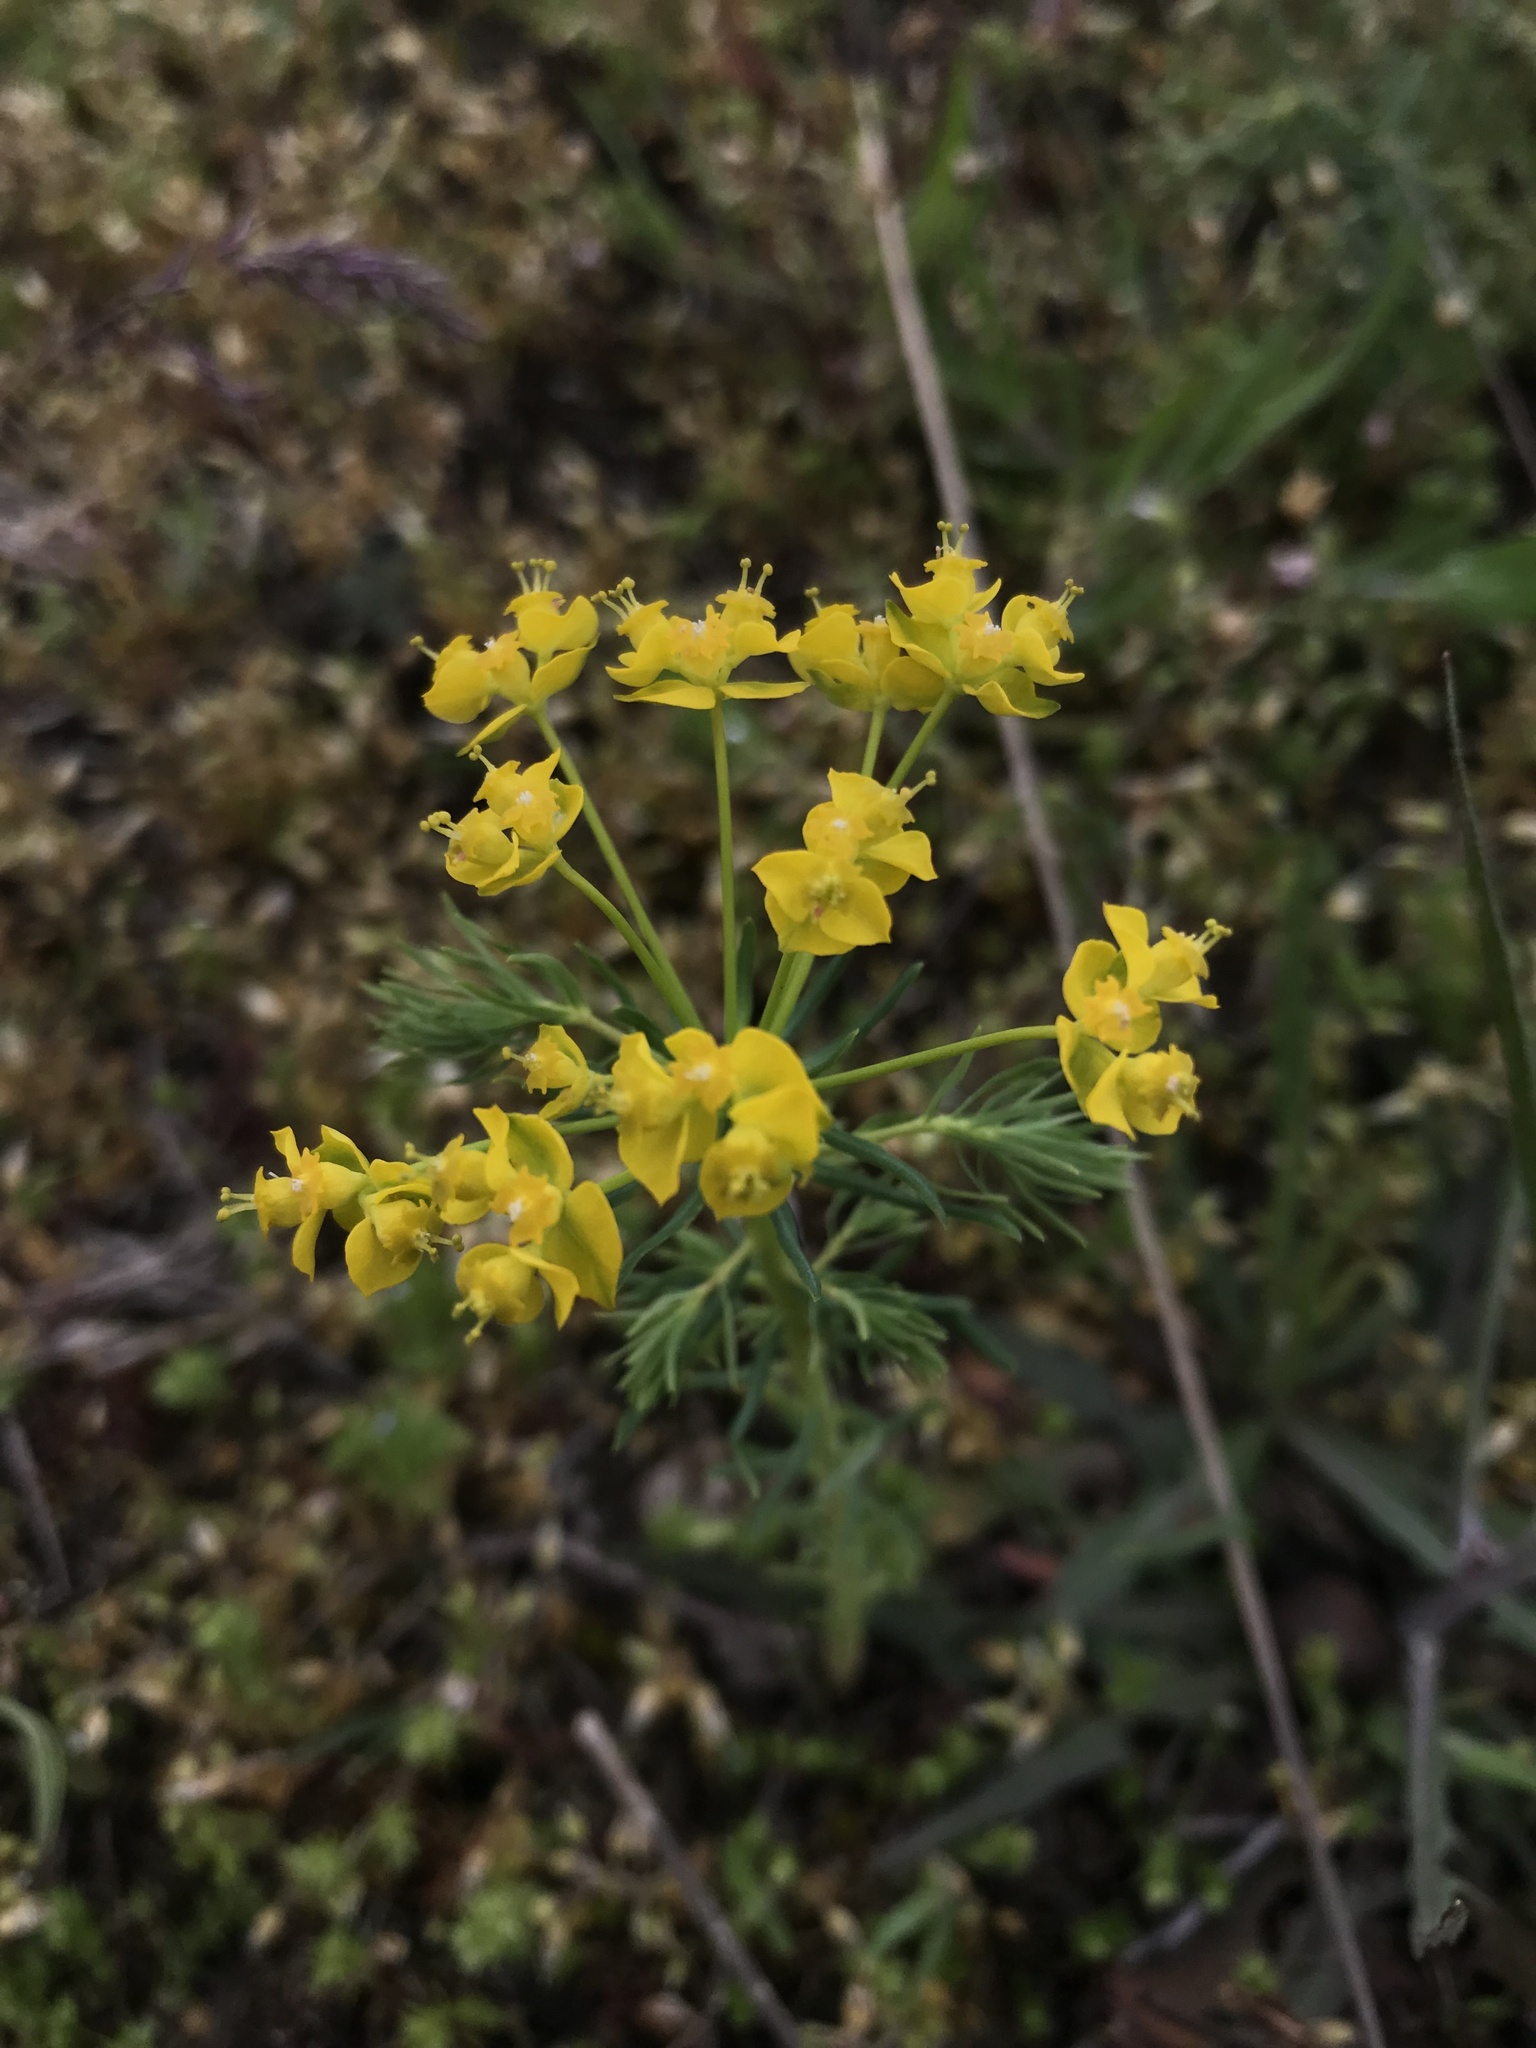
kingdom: Plantae
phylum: Tracheophyta
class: Magnoliopsida
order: Malpighiales
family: Euphorbiaceae
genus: Euphorbia
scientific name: Euphorbia cyparissias
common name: Cypress spurge
